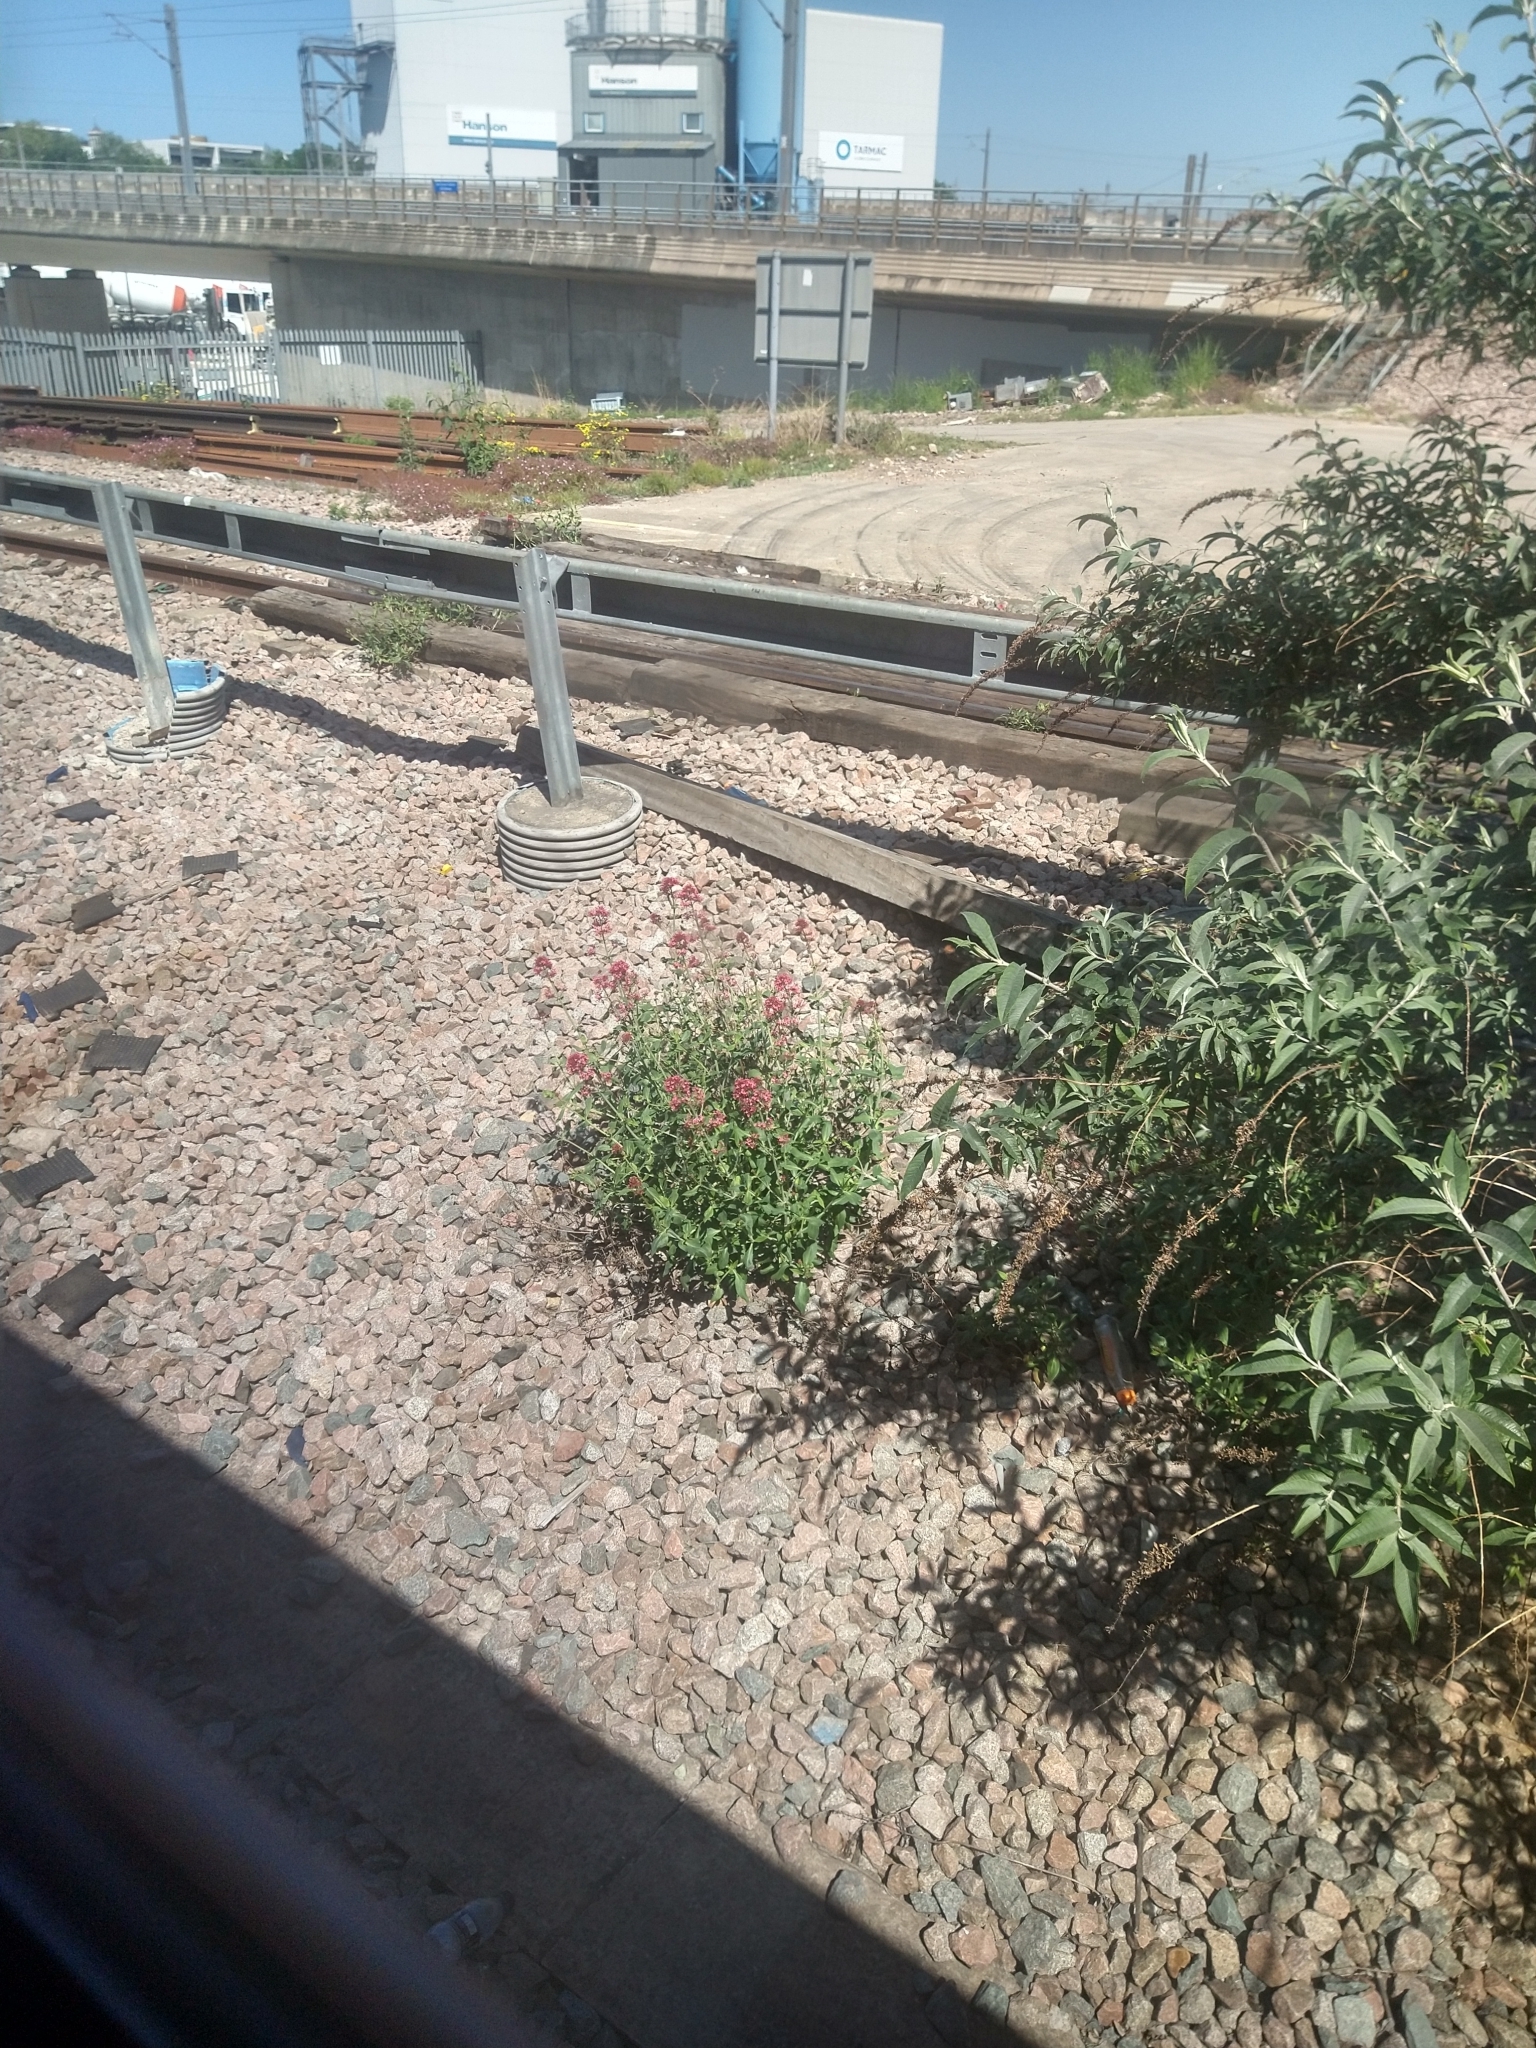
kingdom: Plantae
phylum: Tracheophyta
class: Magnoliopsida
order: Dipsacales
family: Caprifoliaceae
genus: Centranthus
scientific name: Centranthus ruber
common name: Red valerian
